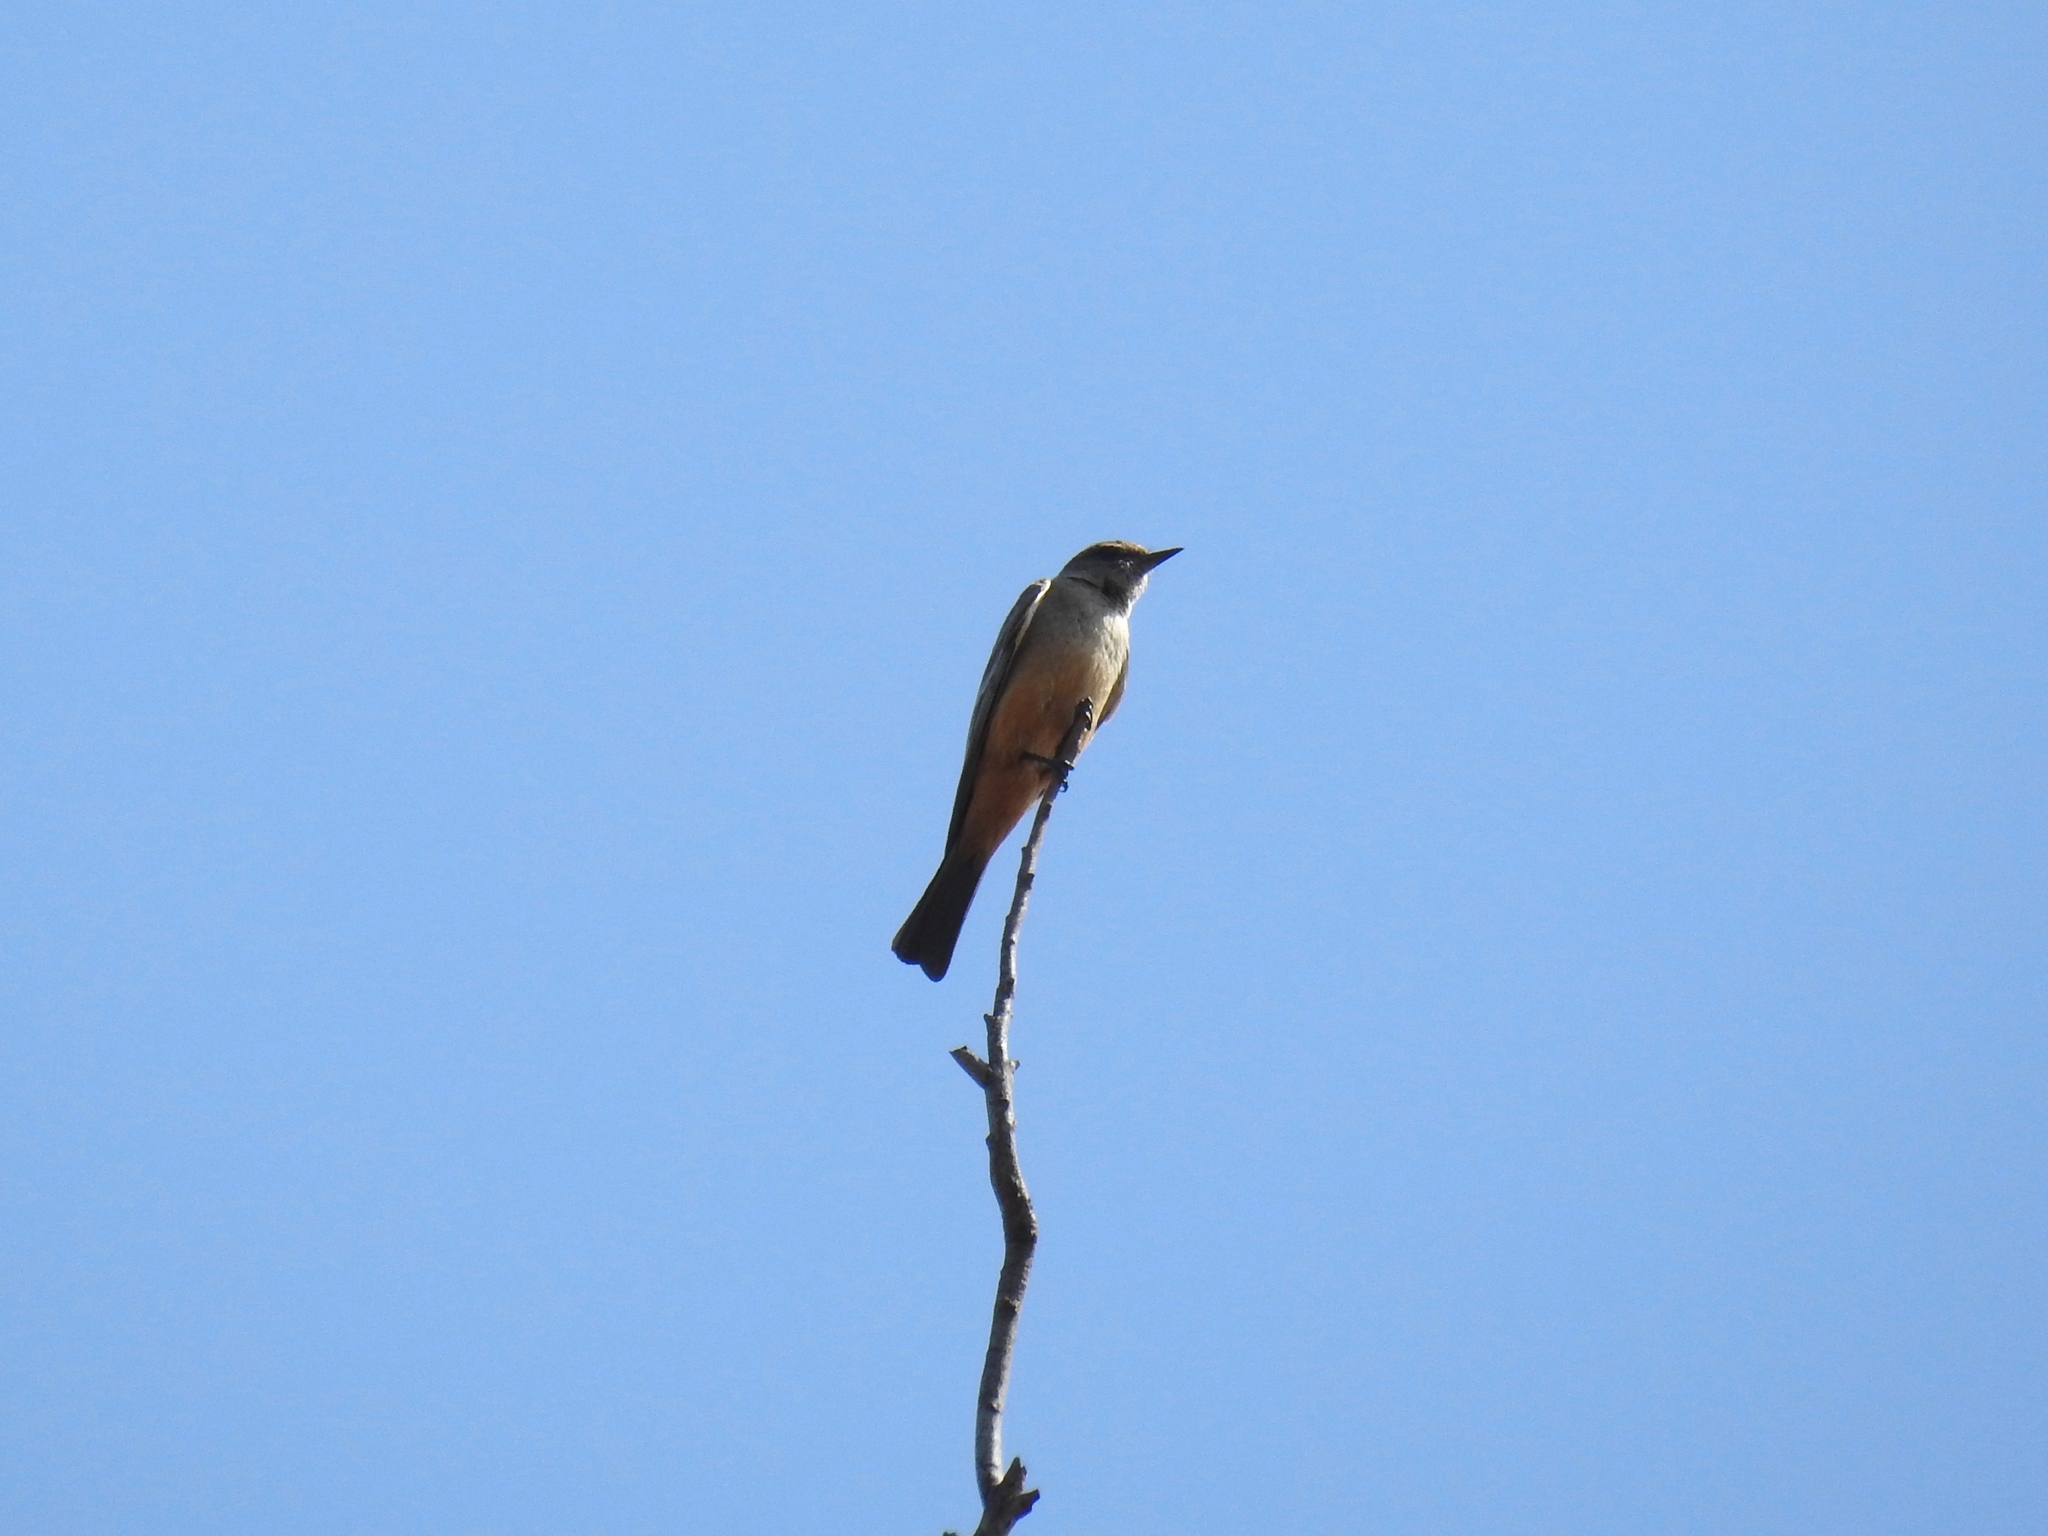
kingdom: Animalia
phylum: Chordata
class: Aves
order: Passeriformes
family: Tyrannidae
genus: Sayornis
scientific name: Sayornis saya
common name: Say's phoebe
